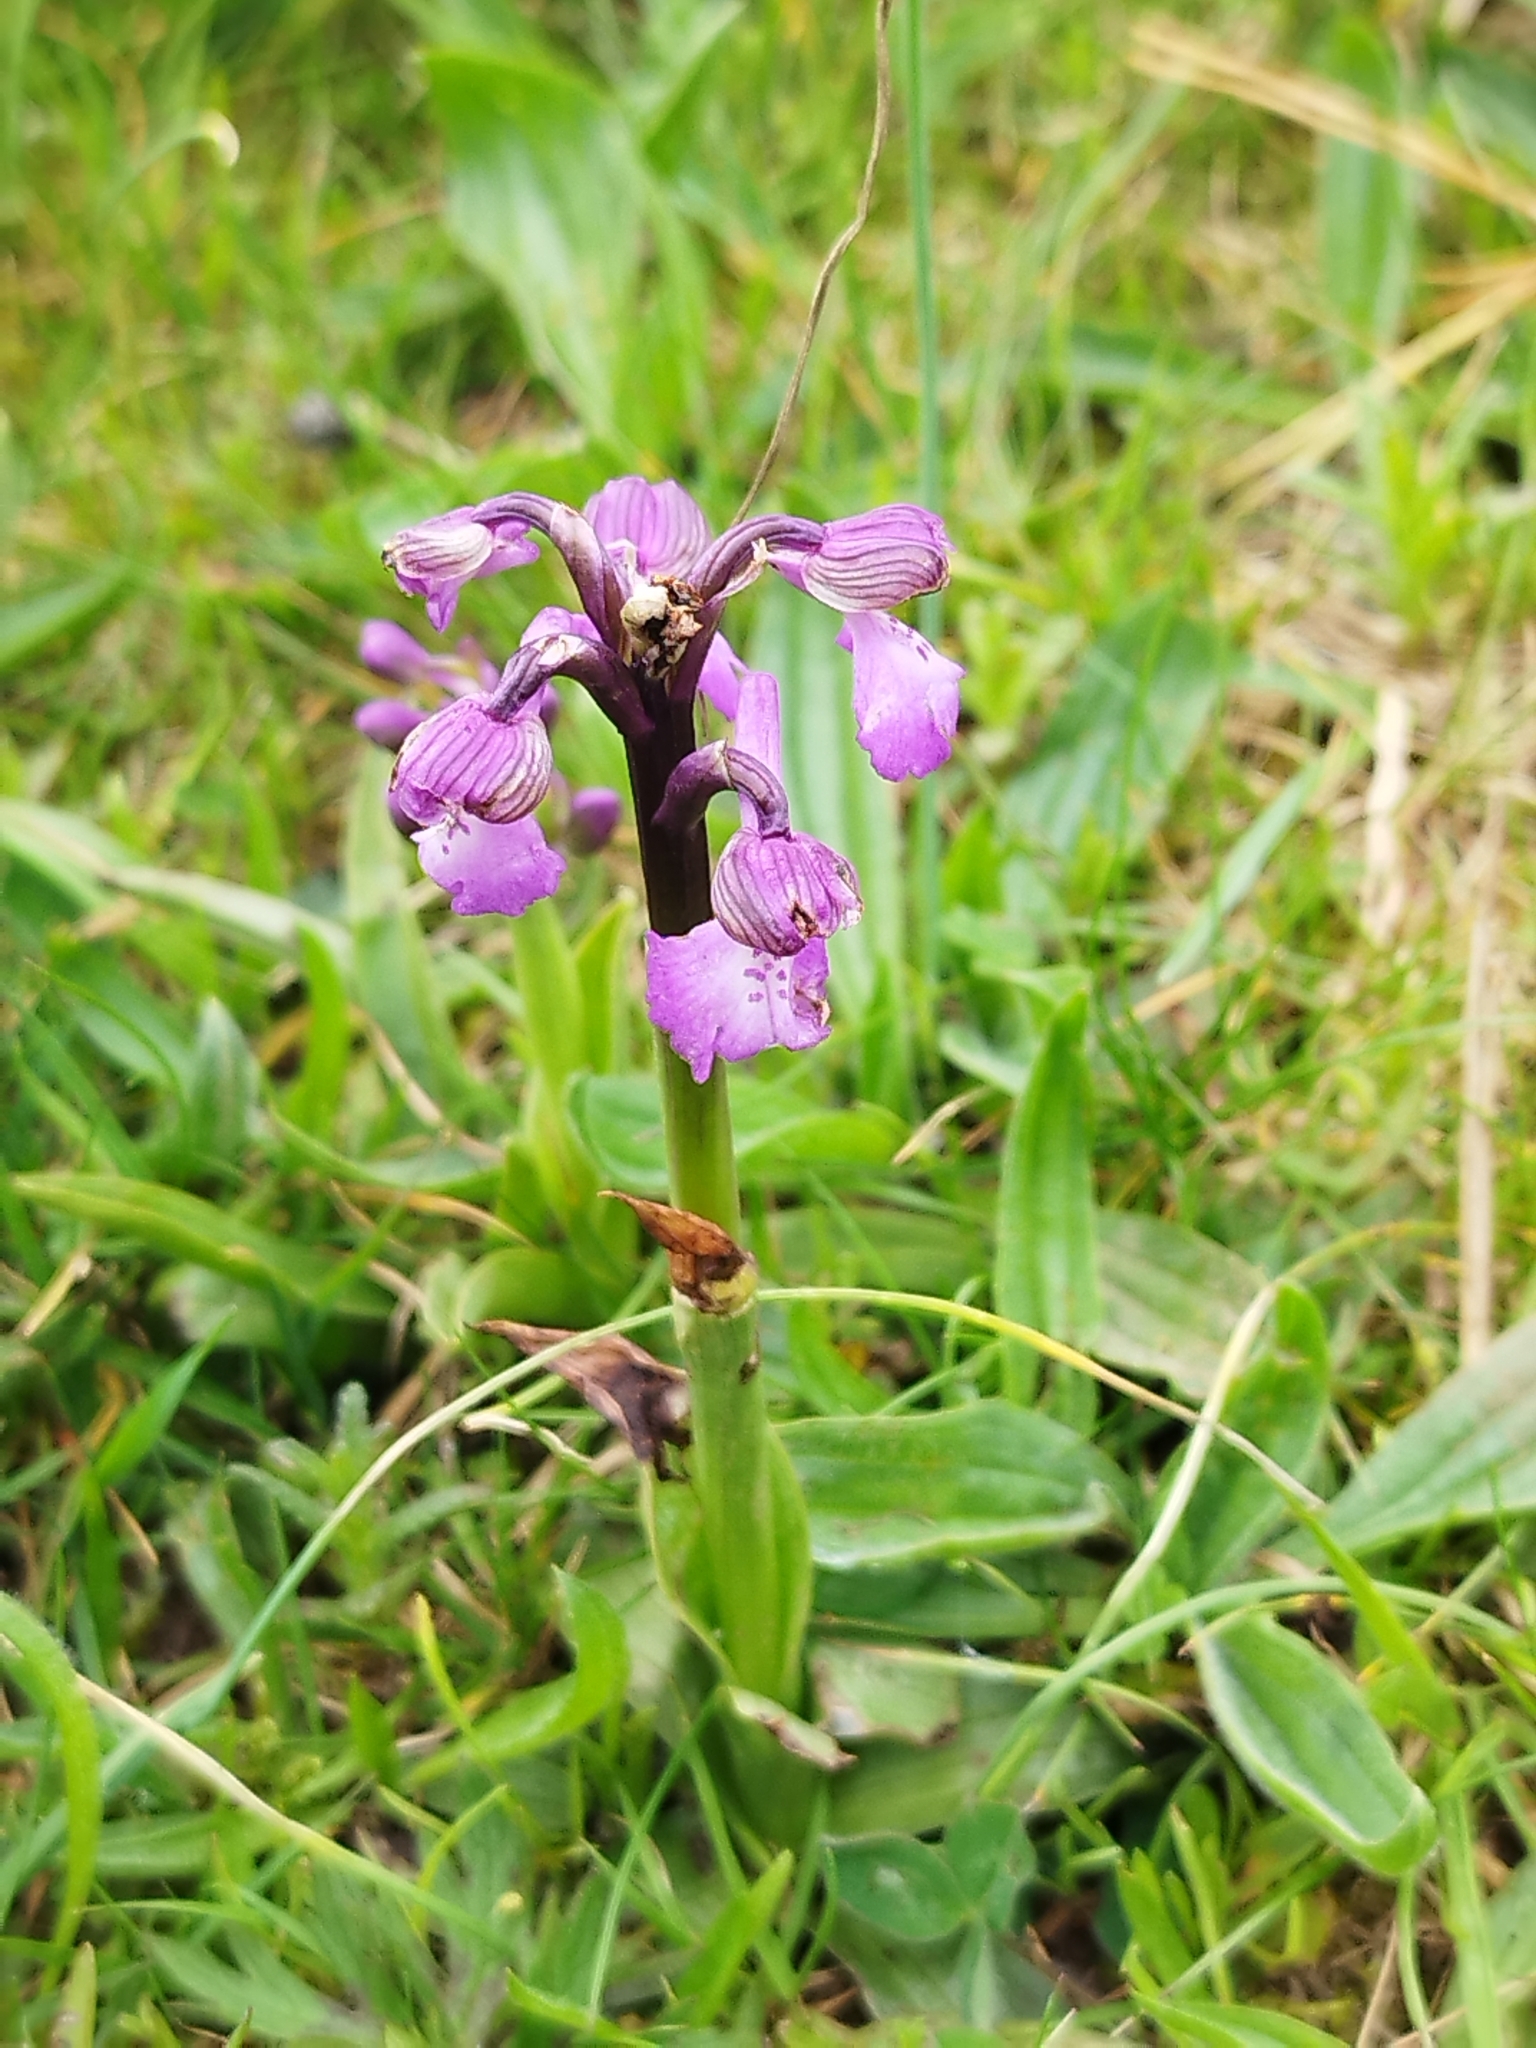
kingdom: Plantae
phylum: Tracheophyta
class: Liliopsida
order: Asparagales
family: Orchidaceae
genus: Anacamptis
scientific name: Anacamptis morio
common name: Green-winged orchid
